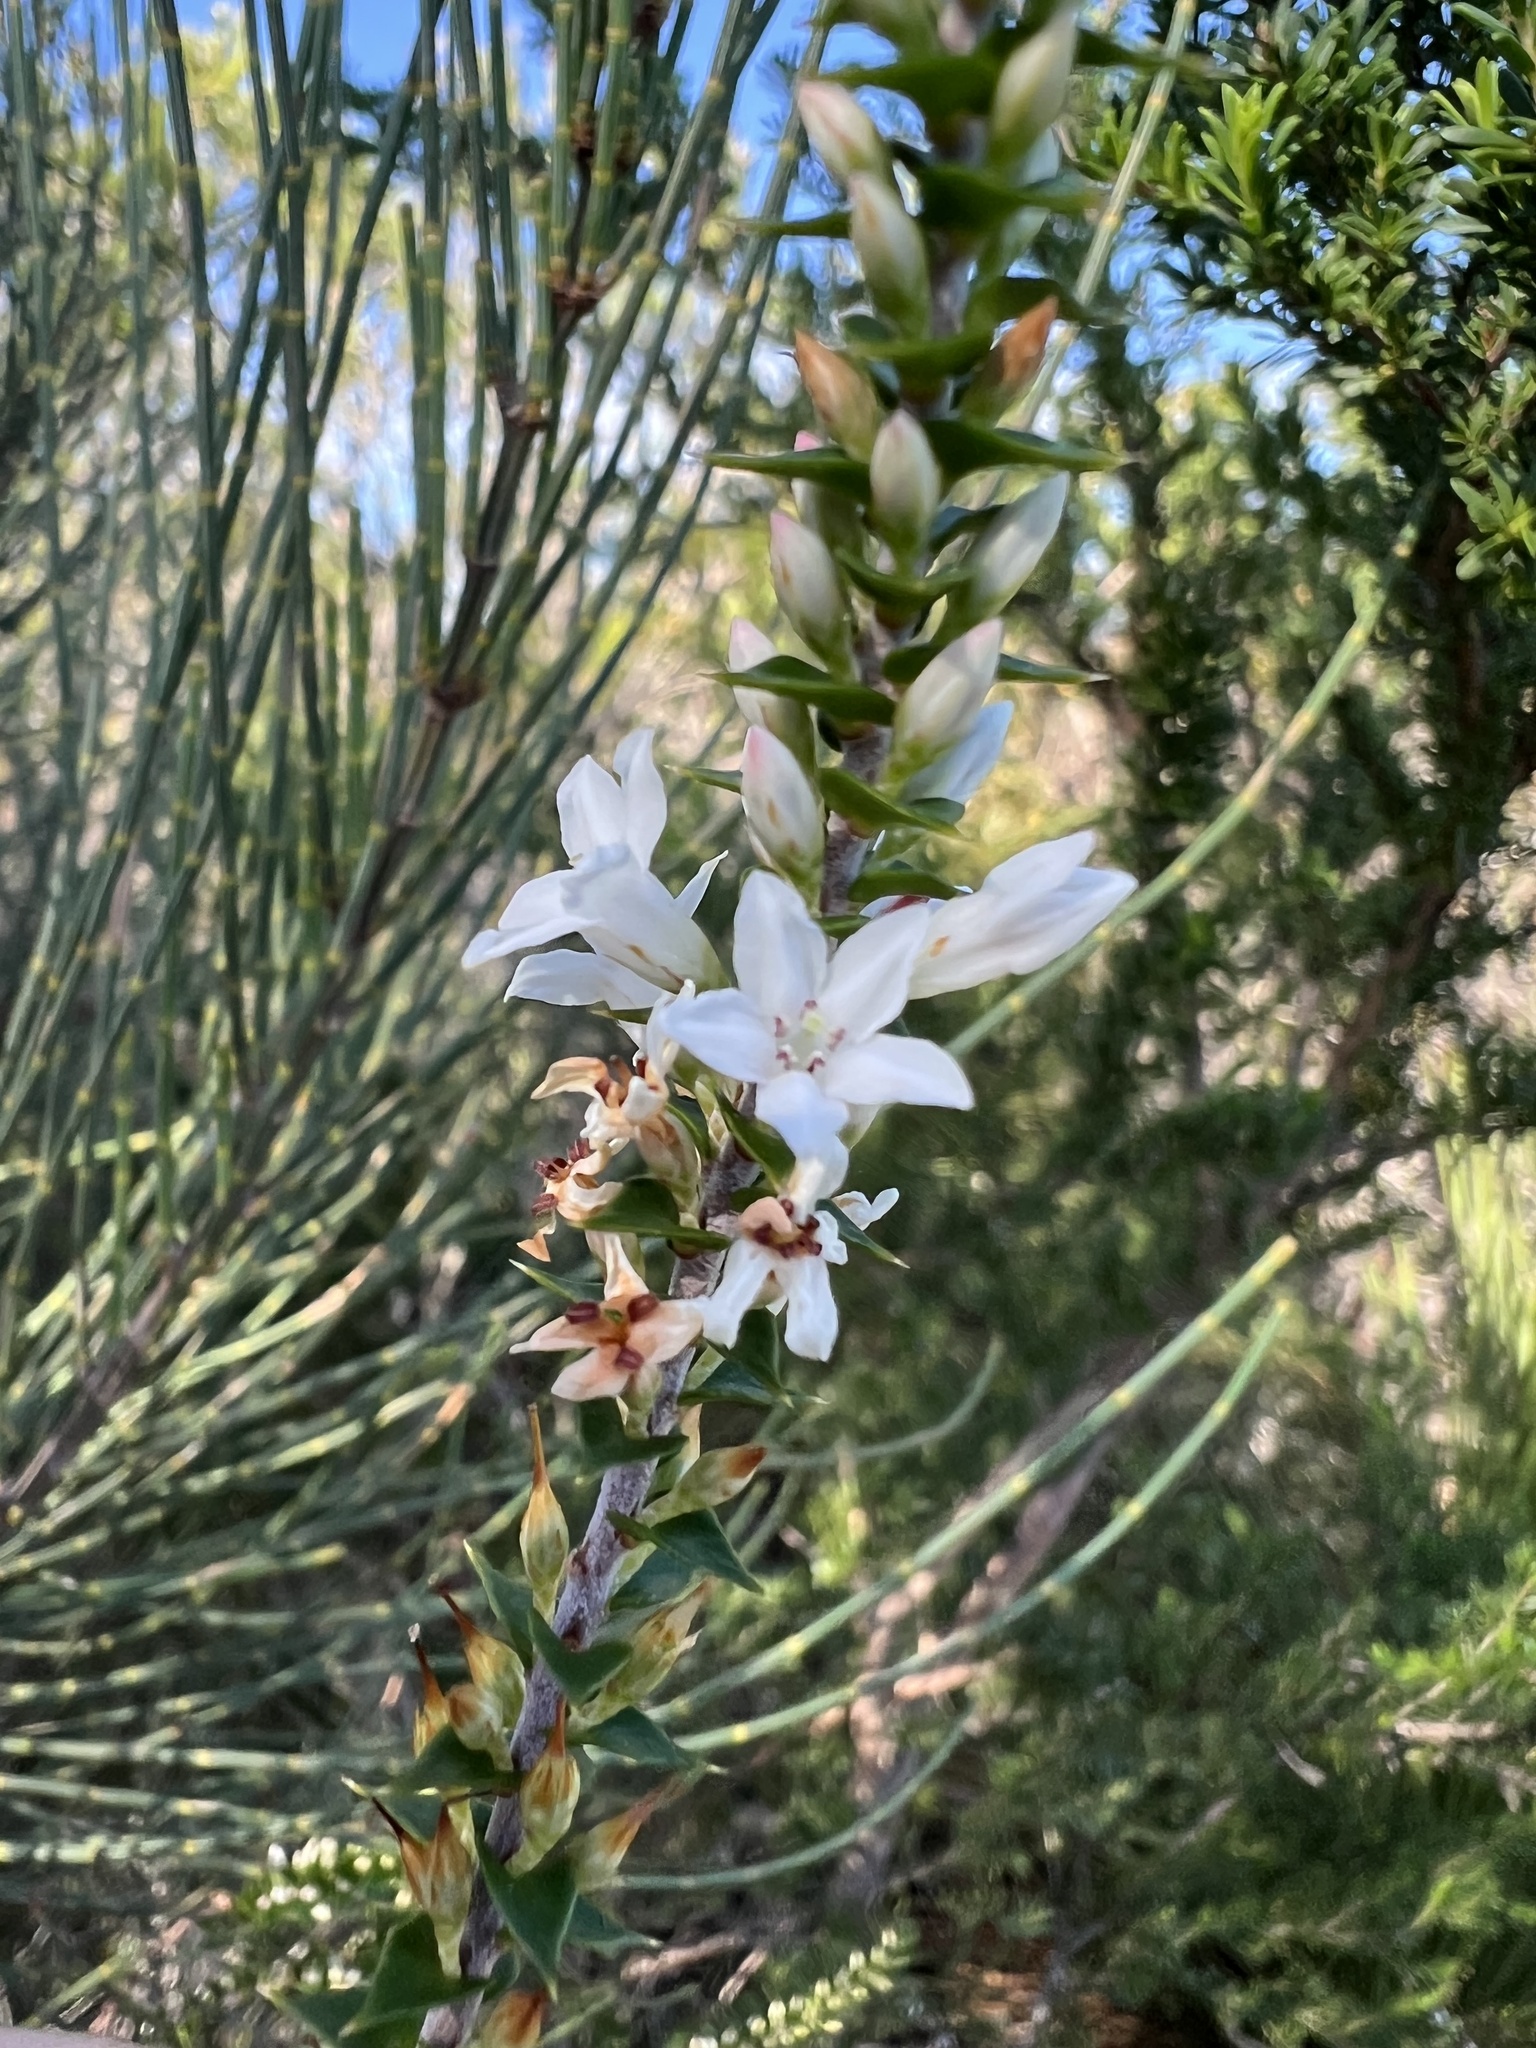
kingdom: Plantae
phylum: Tracheophyta
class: Magnoliopsida
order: Ericales
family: Ericaceae
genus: Epacris
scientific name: Epacris pulchella
